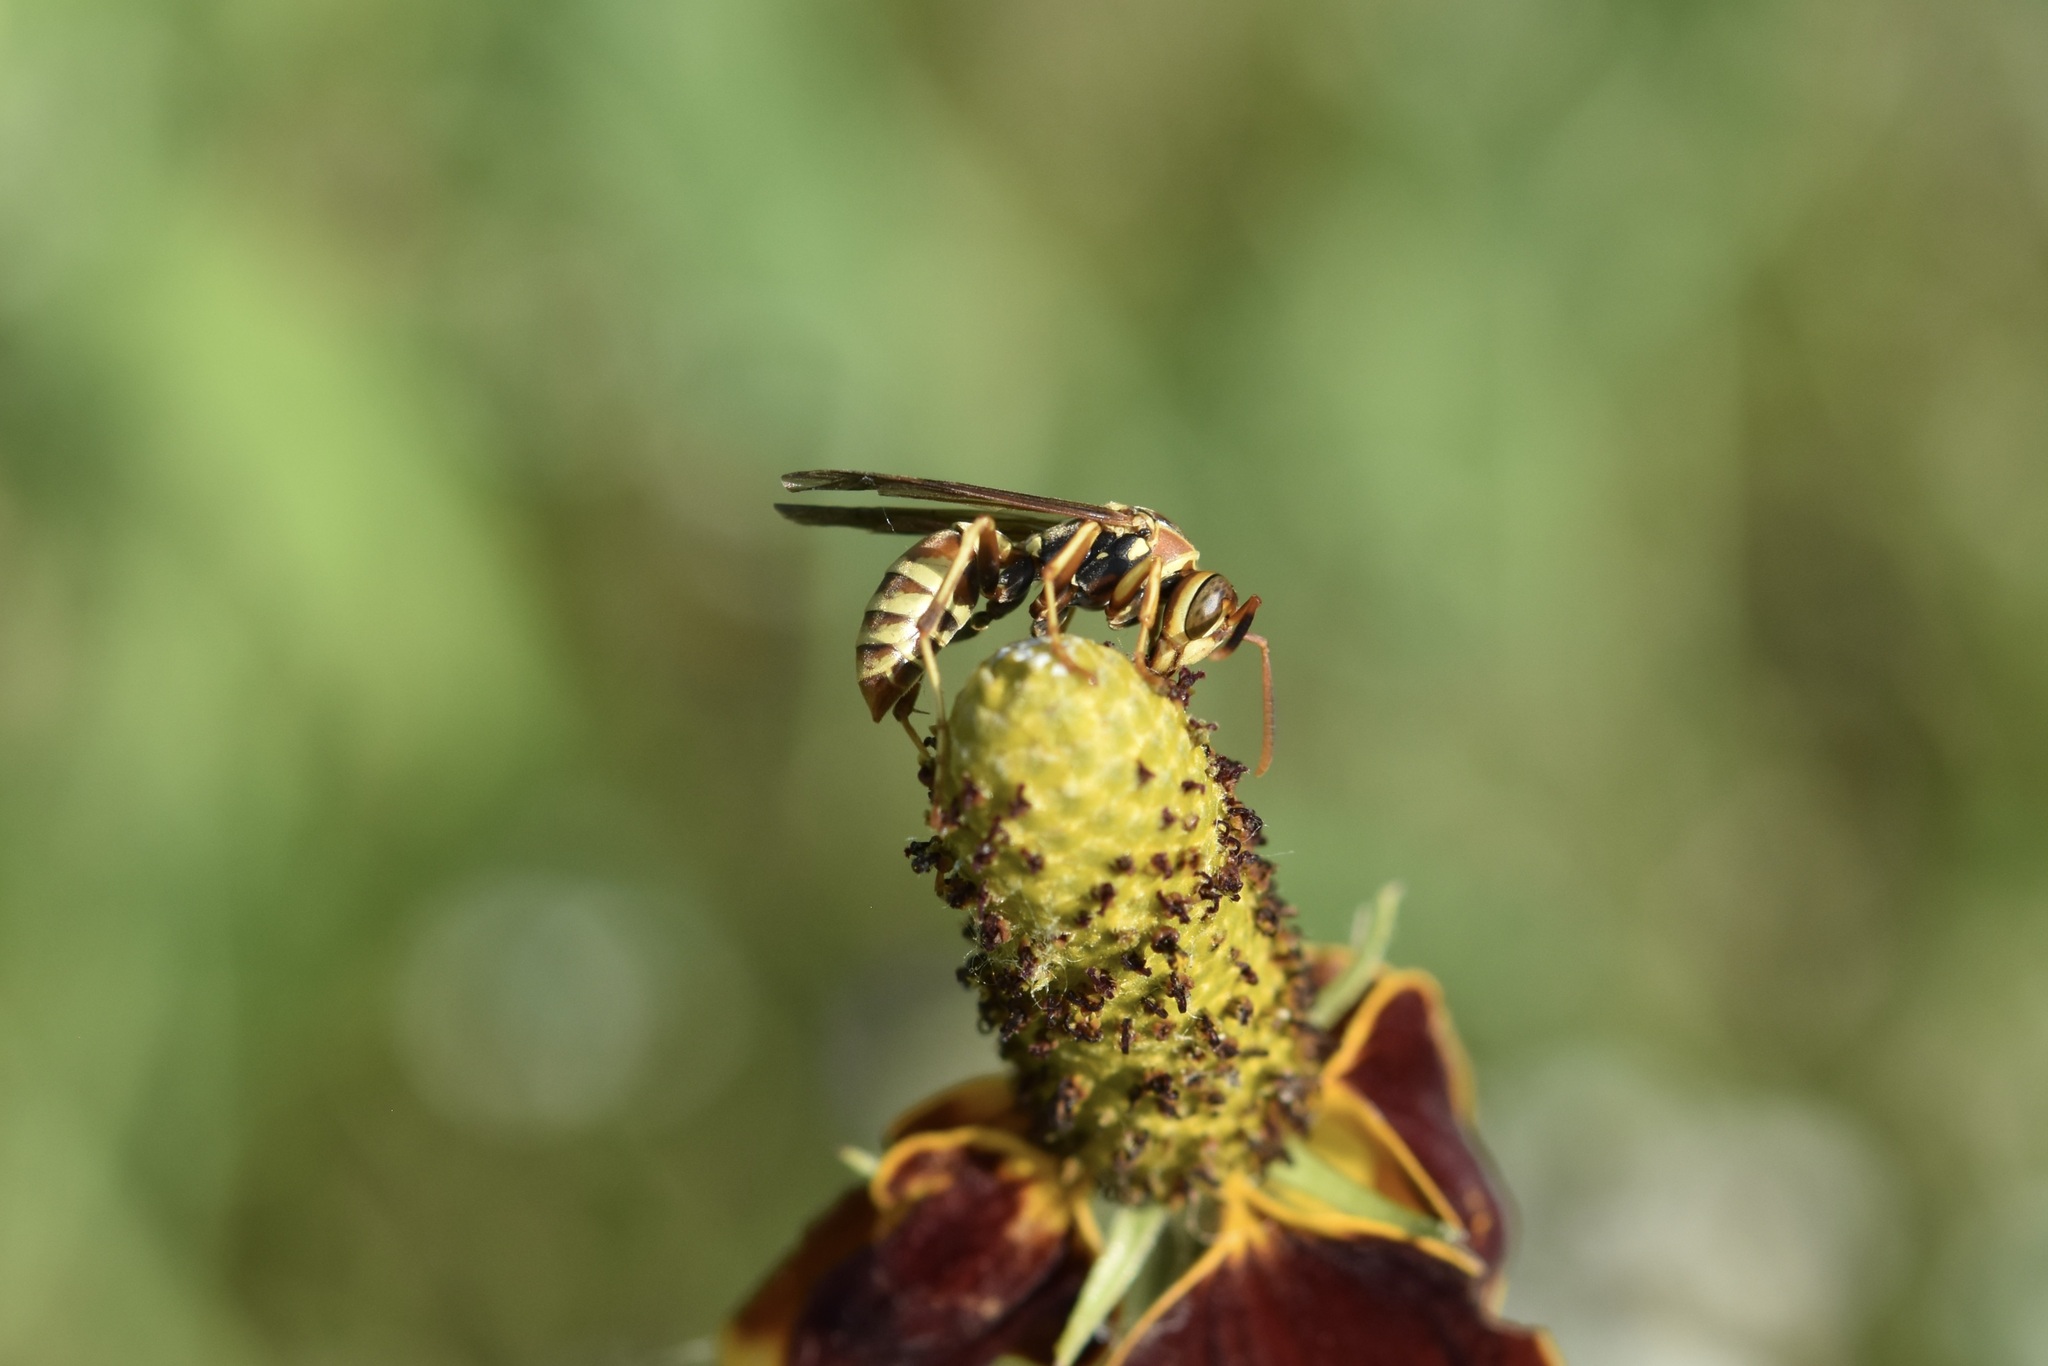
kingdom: Animalia
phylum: Arthropoda
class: Insecta
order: Hymenoptera
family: Eumenidae
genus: Polistes
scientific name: Polistes dorsalis
